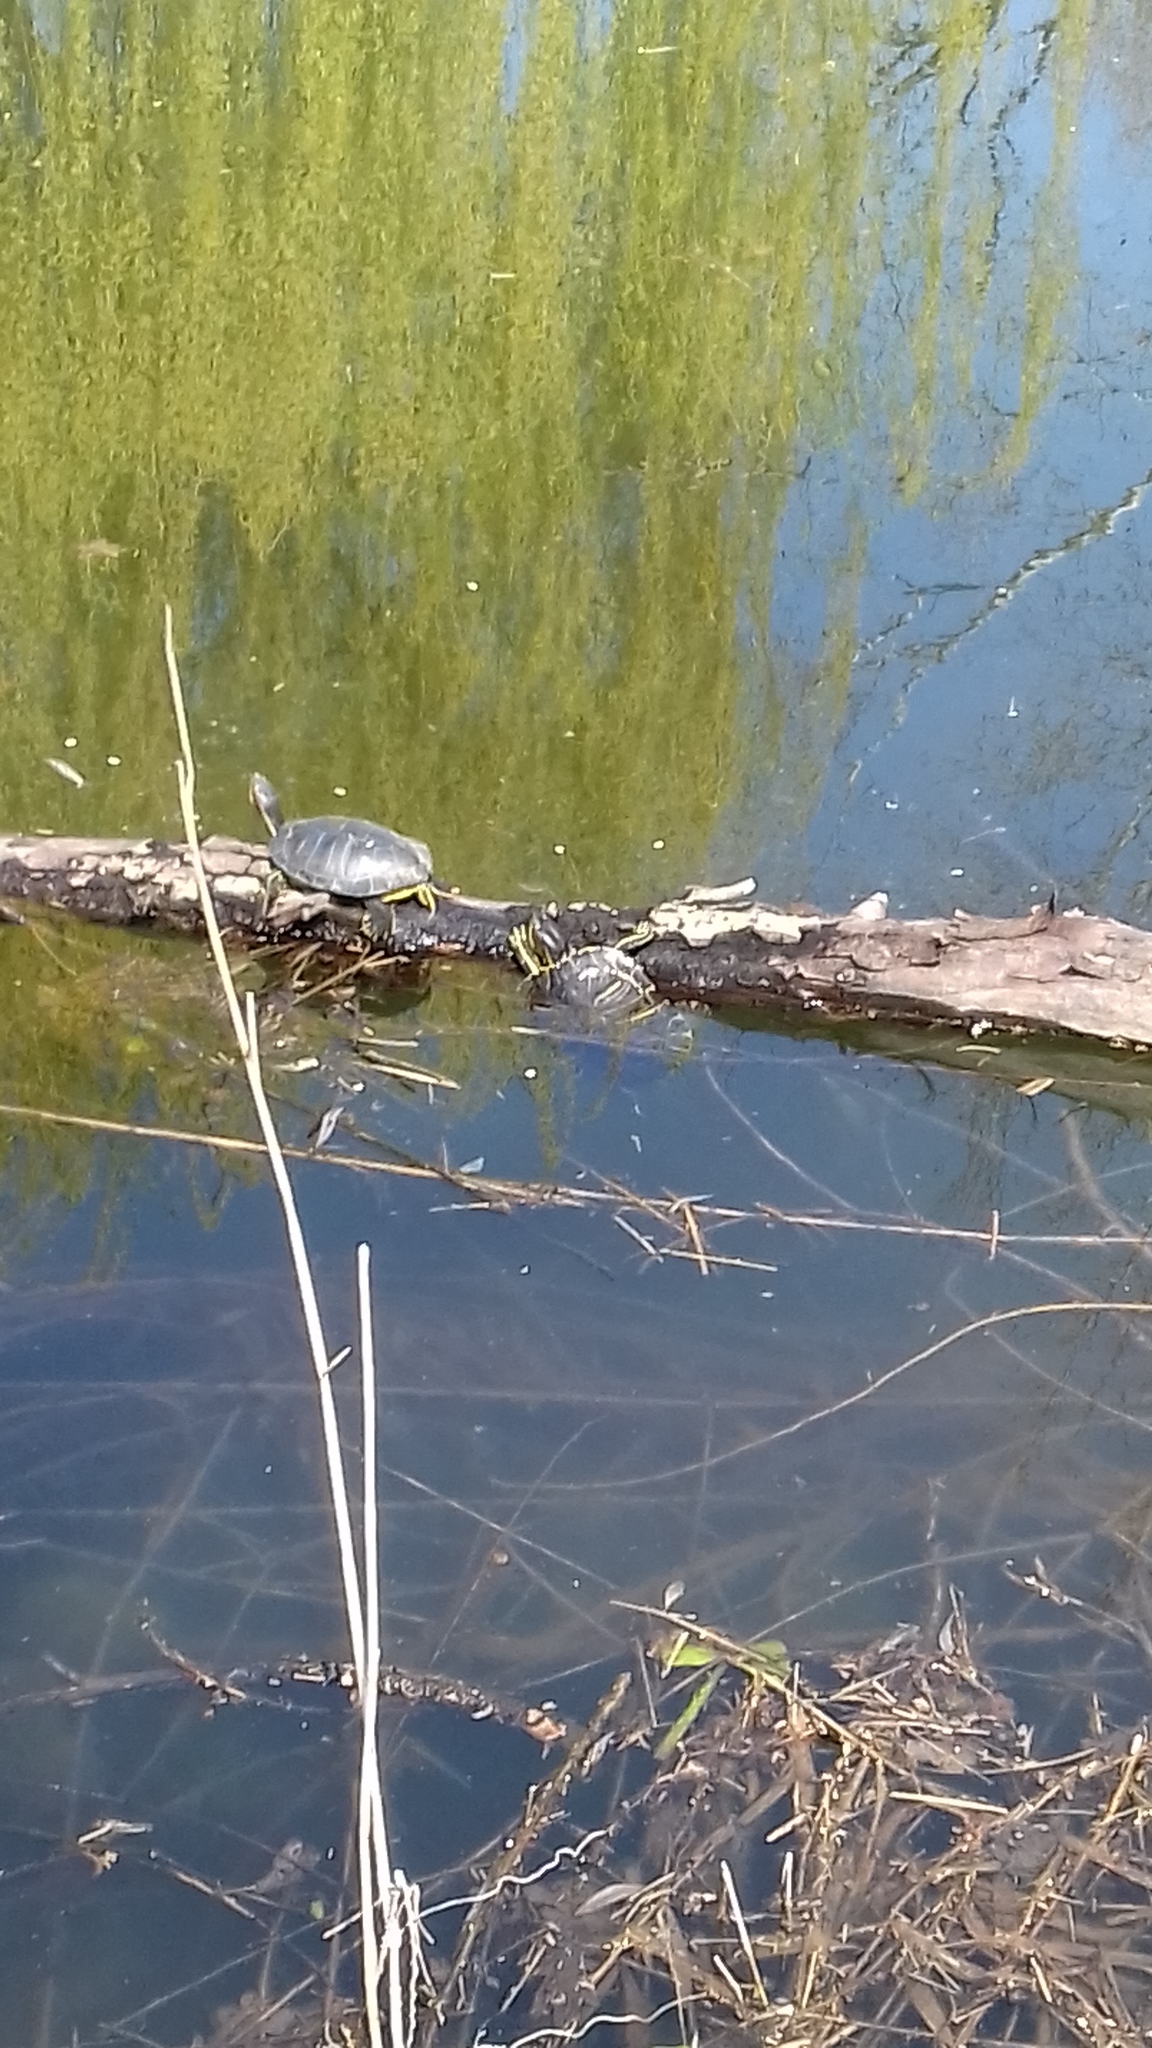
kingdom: Animalia
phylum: Chordata
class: Testudines
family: Emydidae
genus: Trachemys
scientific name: Trachemys scripta
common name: Slider
